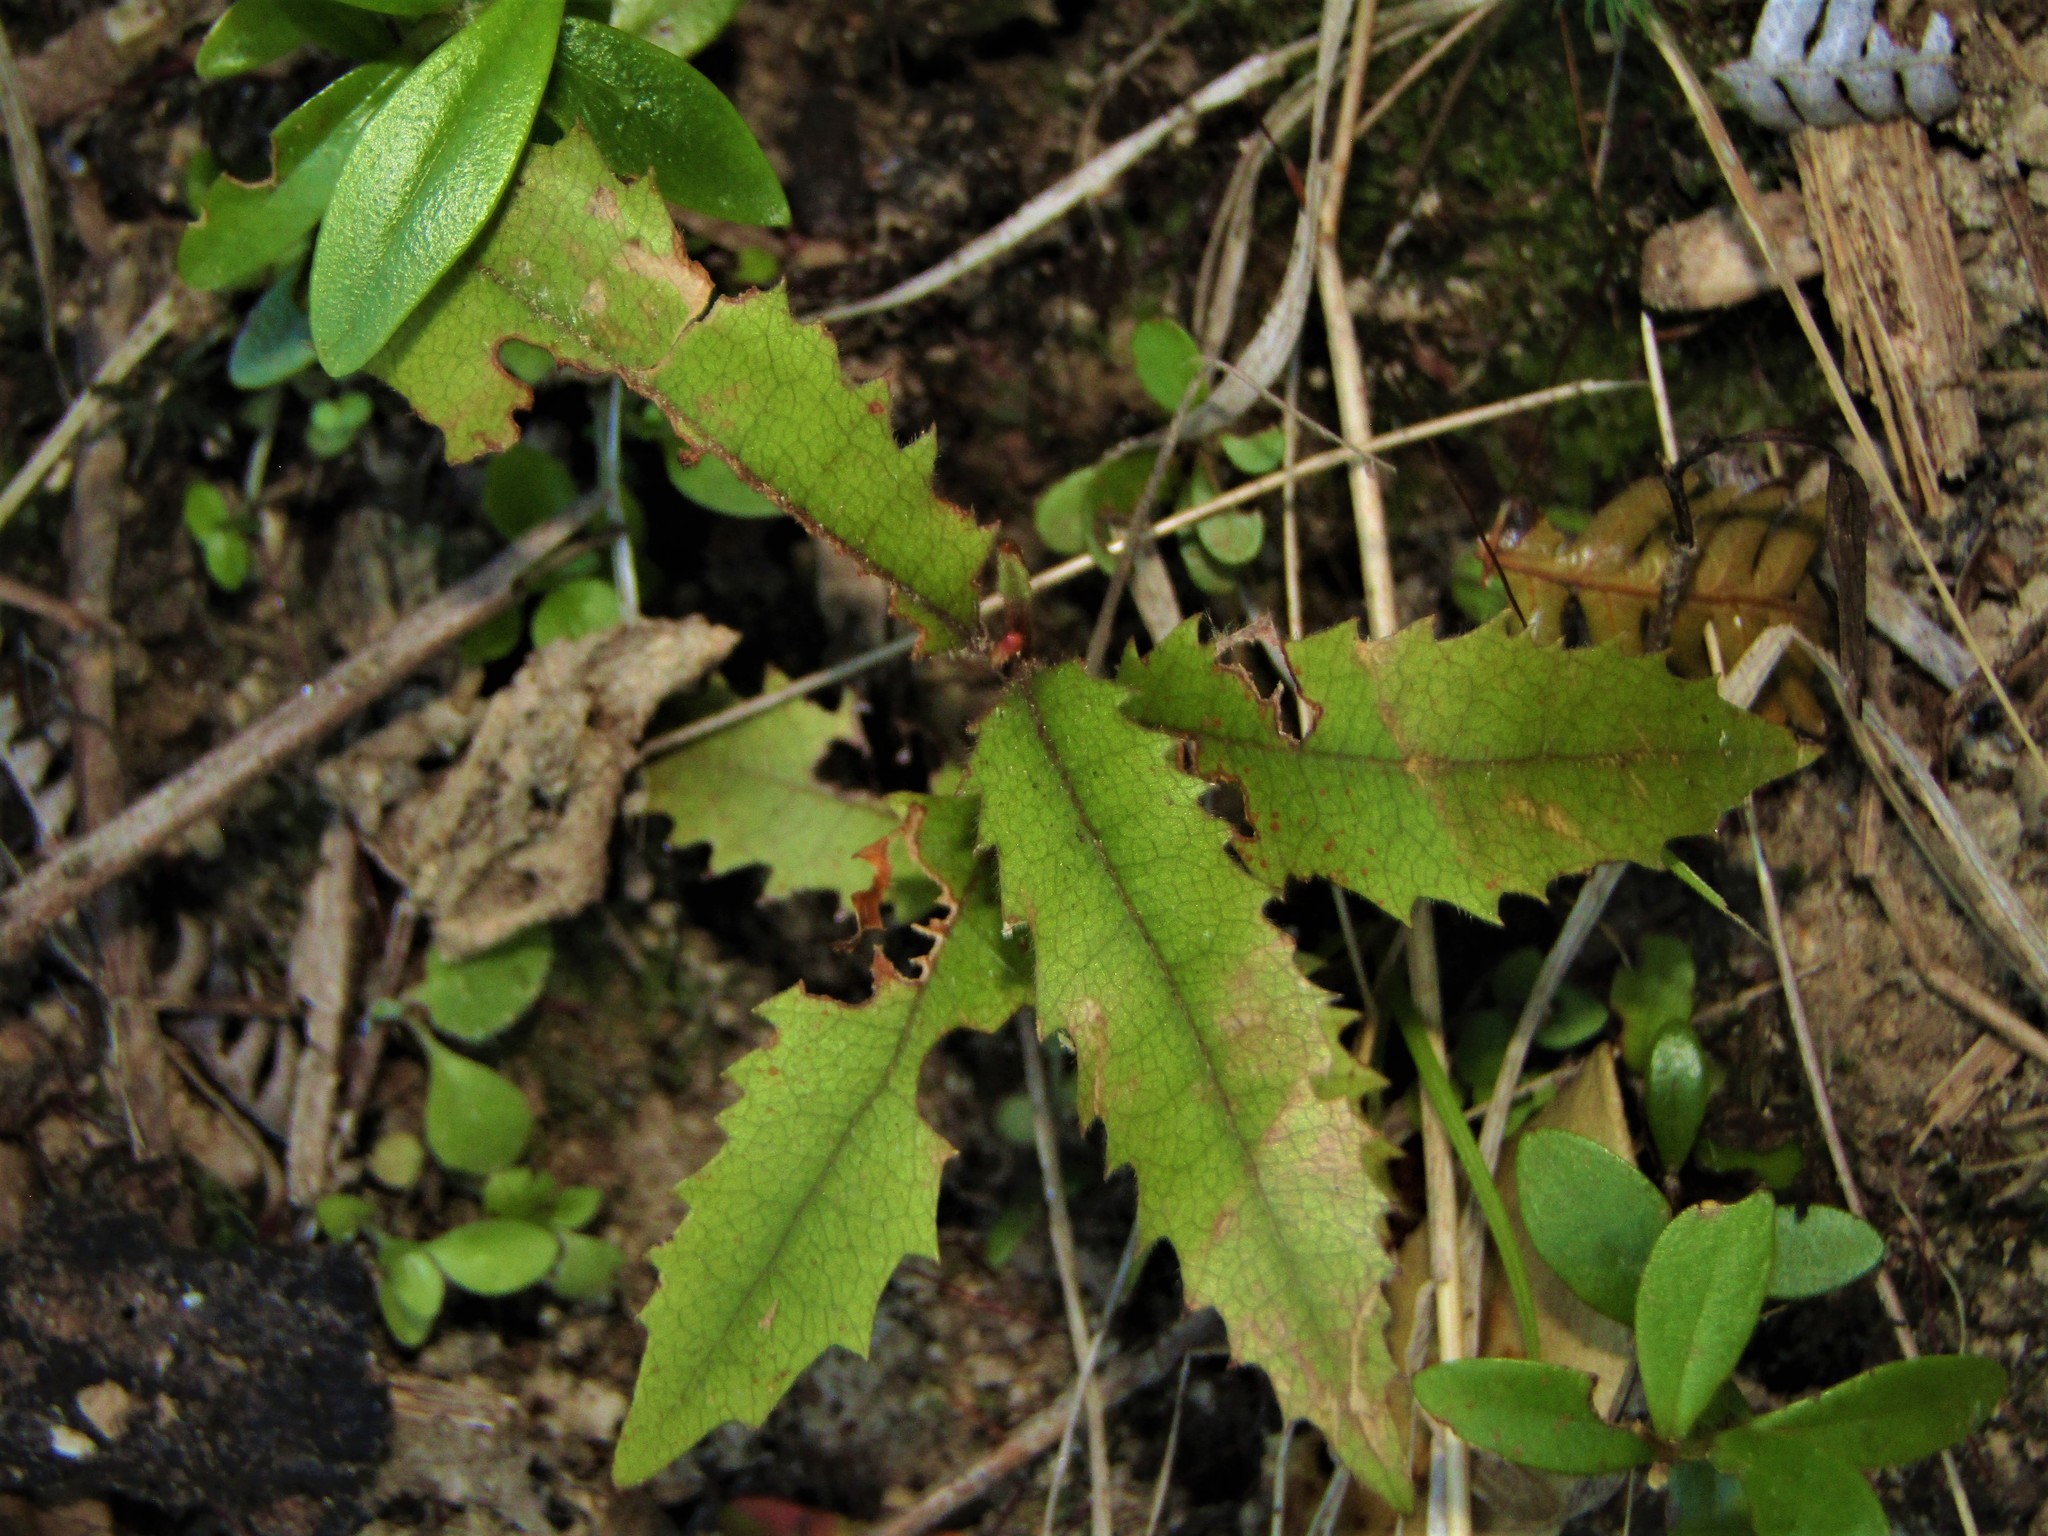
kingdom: Plantae
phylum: Tracheophyta
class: Magnoliopsida
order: Proteales
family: Proteaceae
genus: Knightia
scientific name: Knightia excelsa
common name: New zealand-honeysuckle
